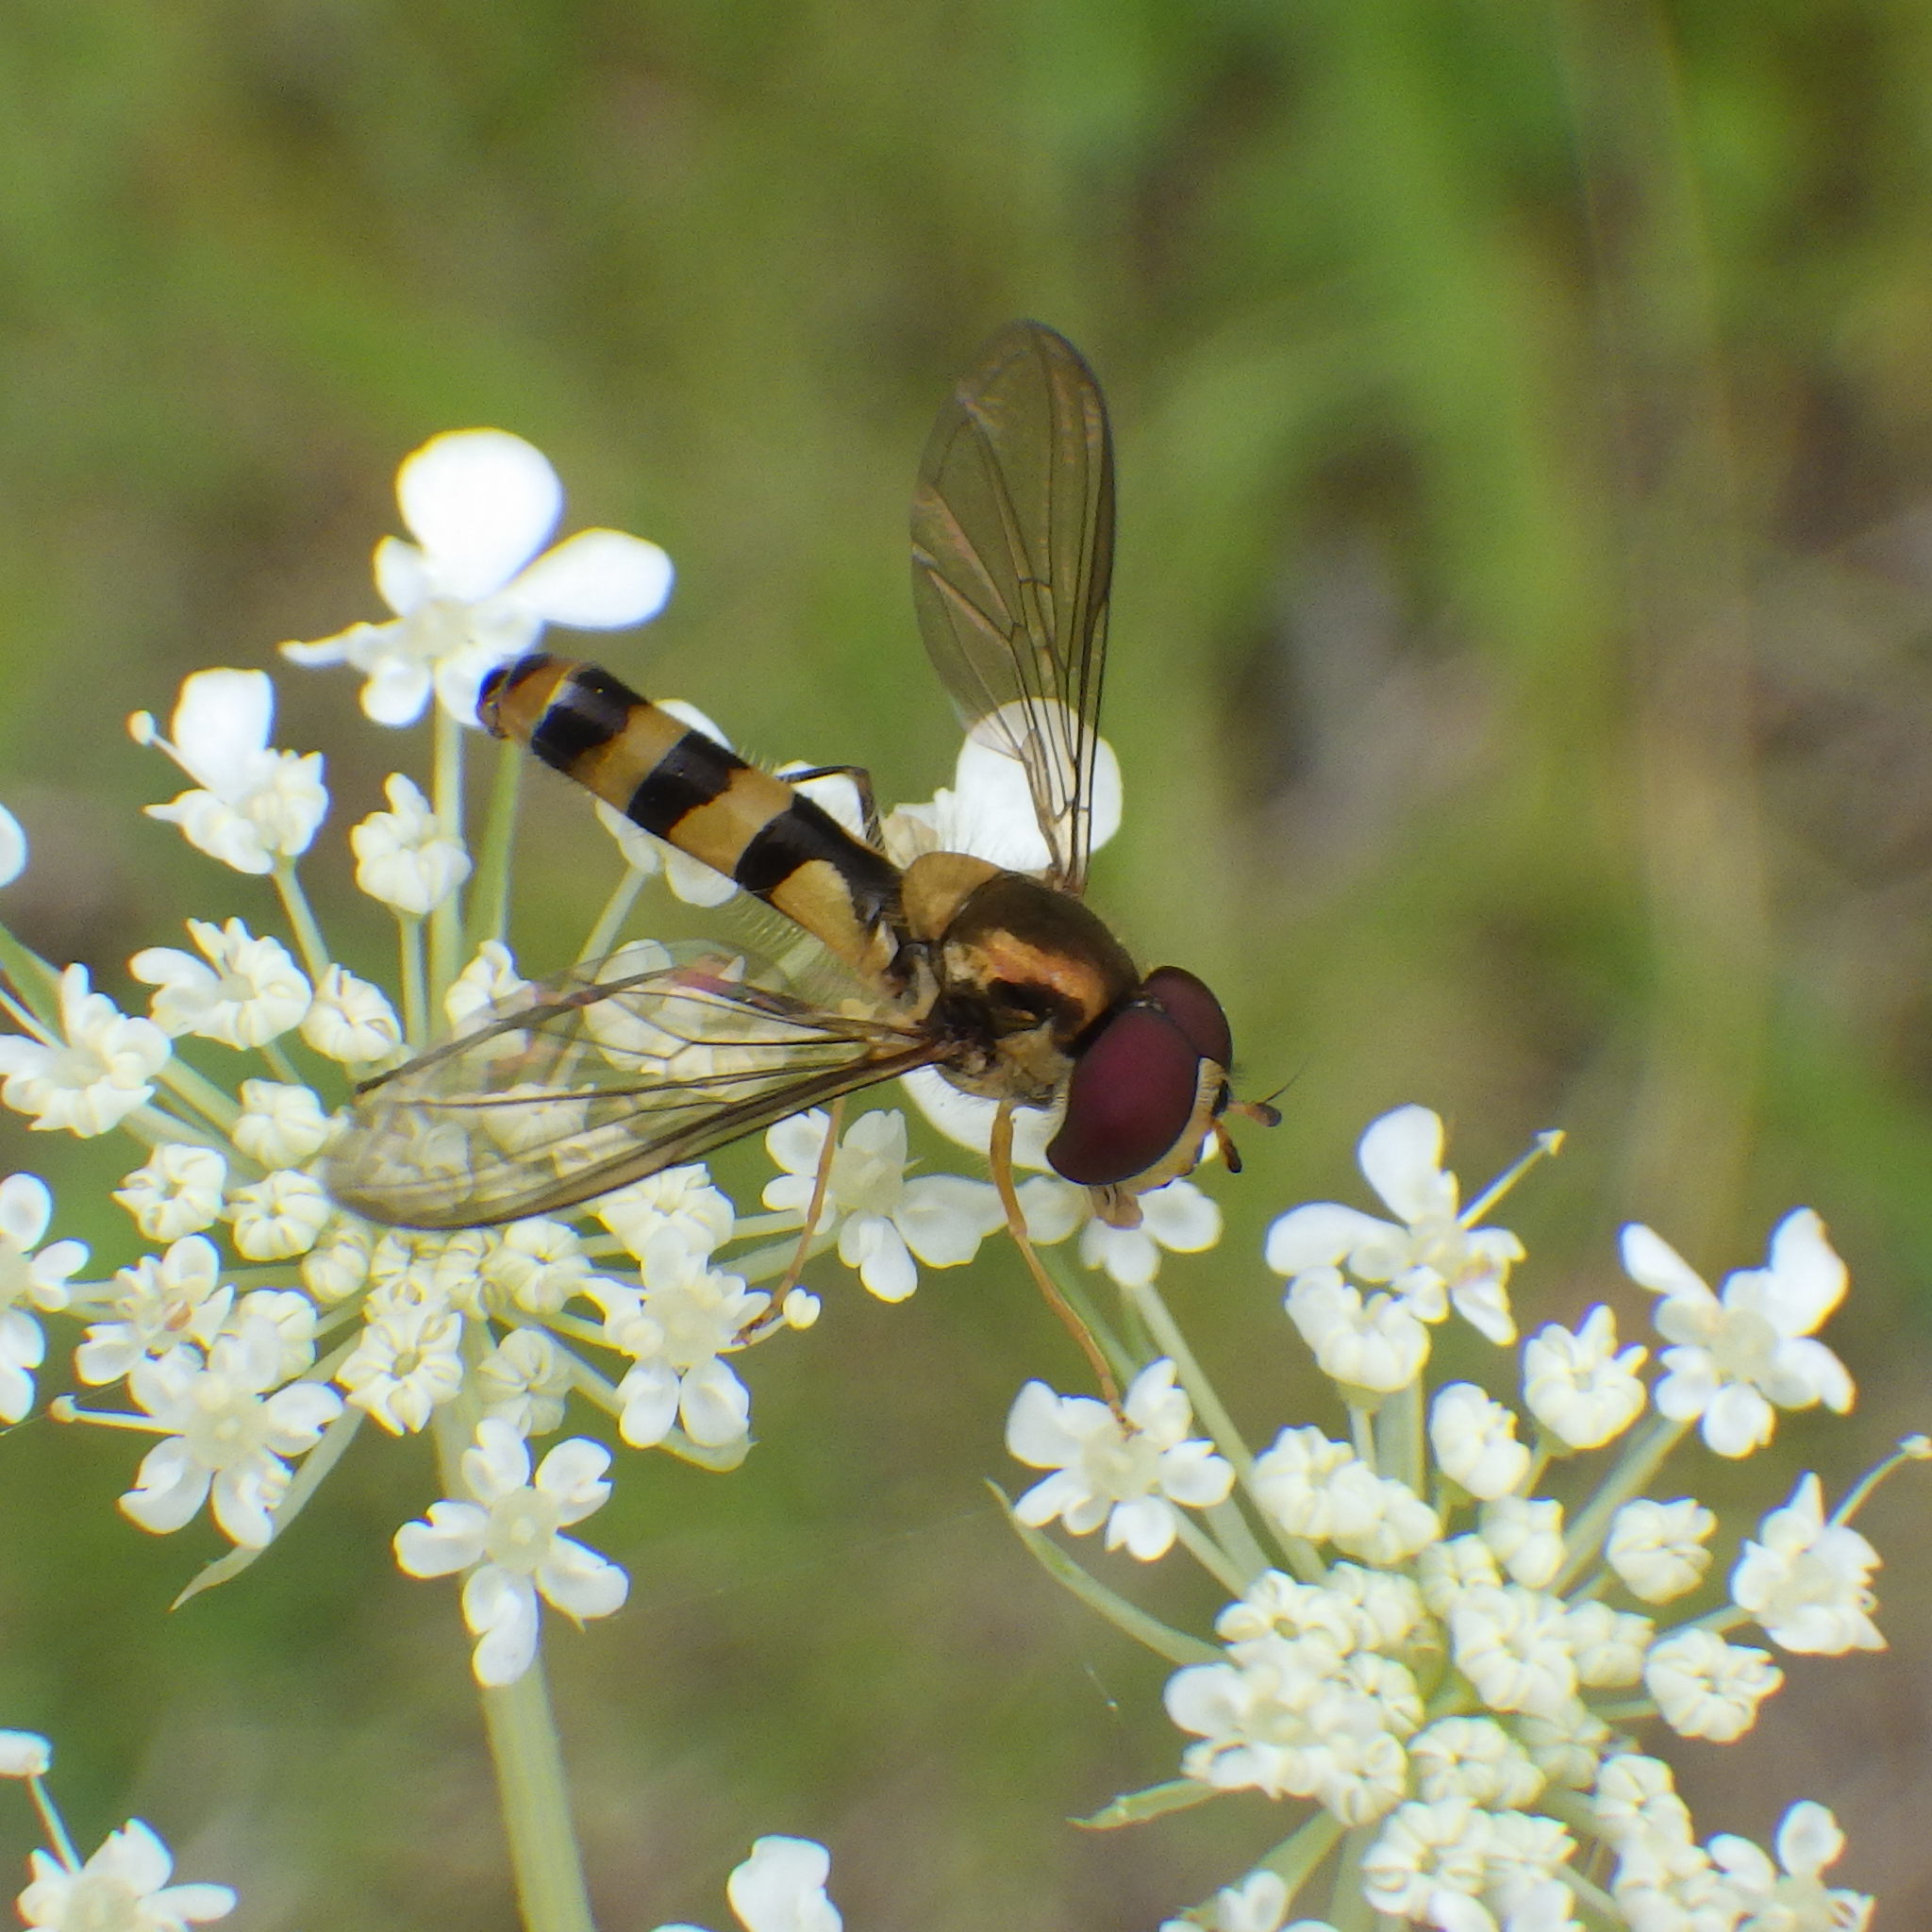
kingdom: Animalia
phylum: Arthropoda
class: Insecta
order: Diptera
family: Syrphidae
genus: Meliscaeva
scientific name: Meliscaeva cinctella
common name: American thintail fly
